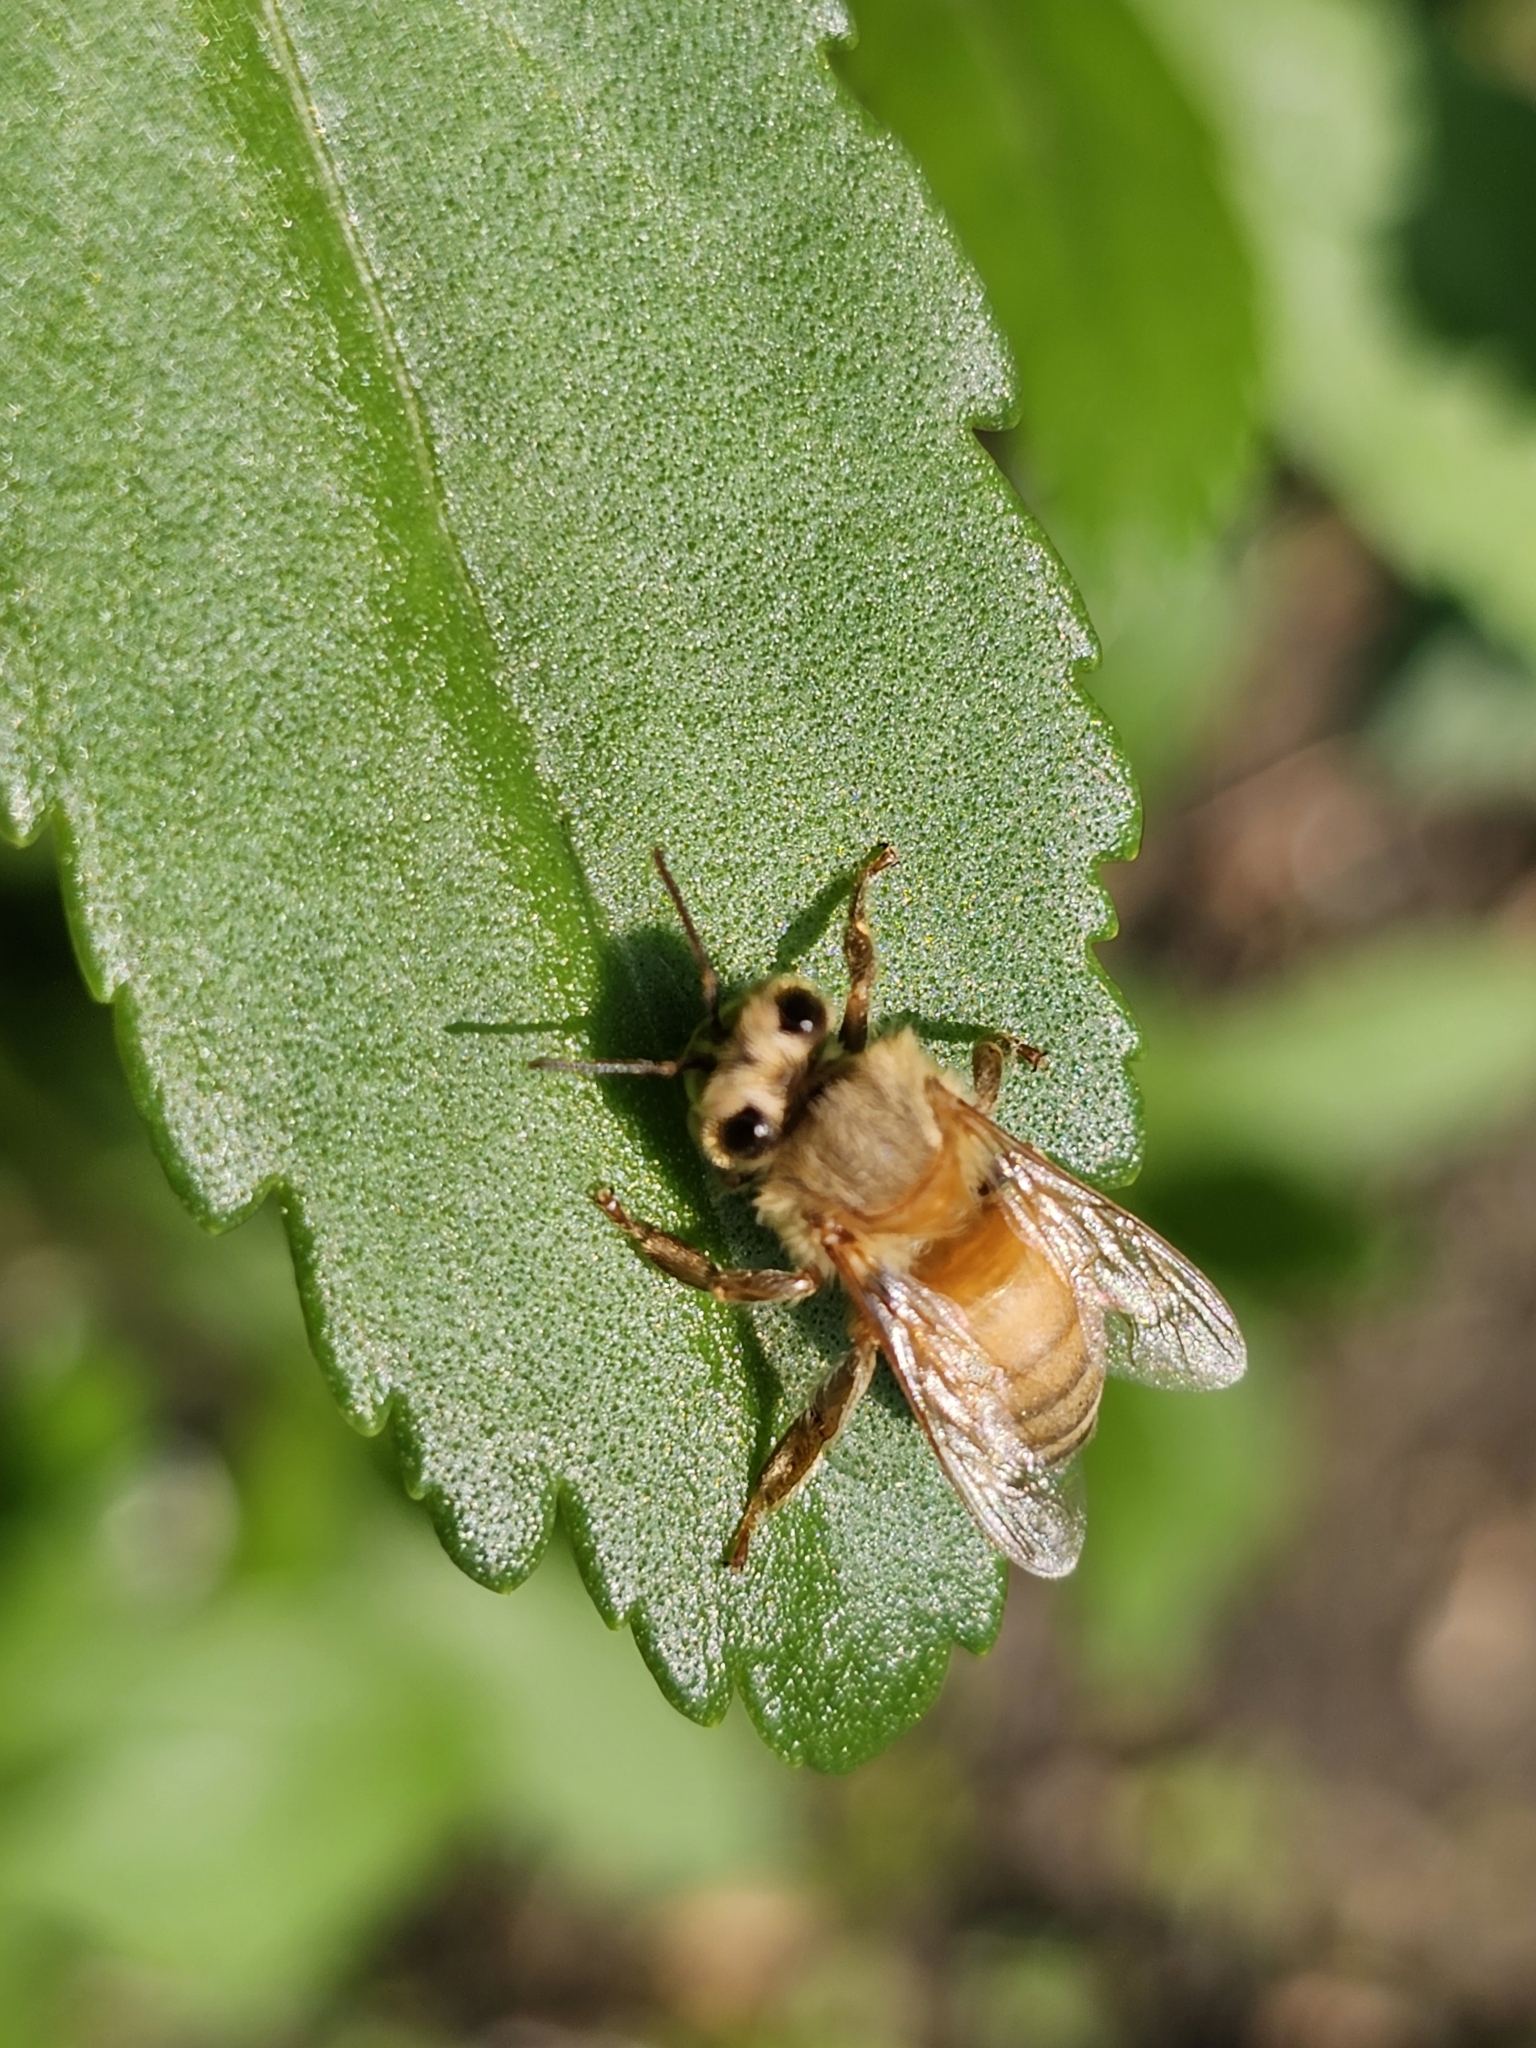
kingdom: Animalia
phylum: Arthropoda
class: Insecta
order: Hymenoptera
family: Apidae
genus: Apis
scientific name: Apis mellifera
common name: Honey bee
